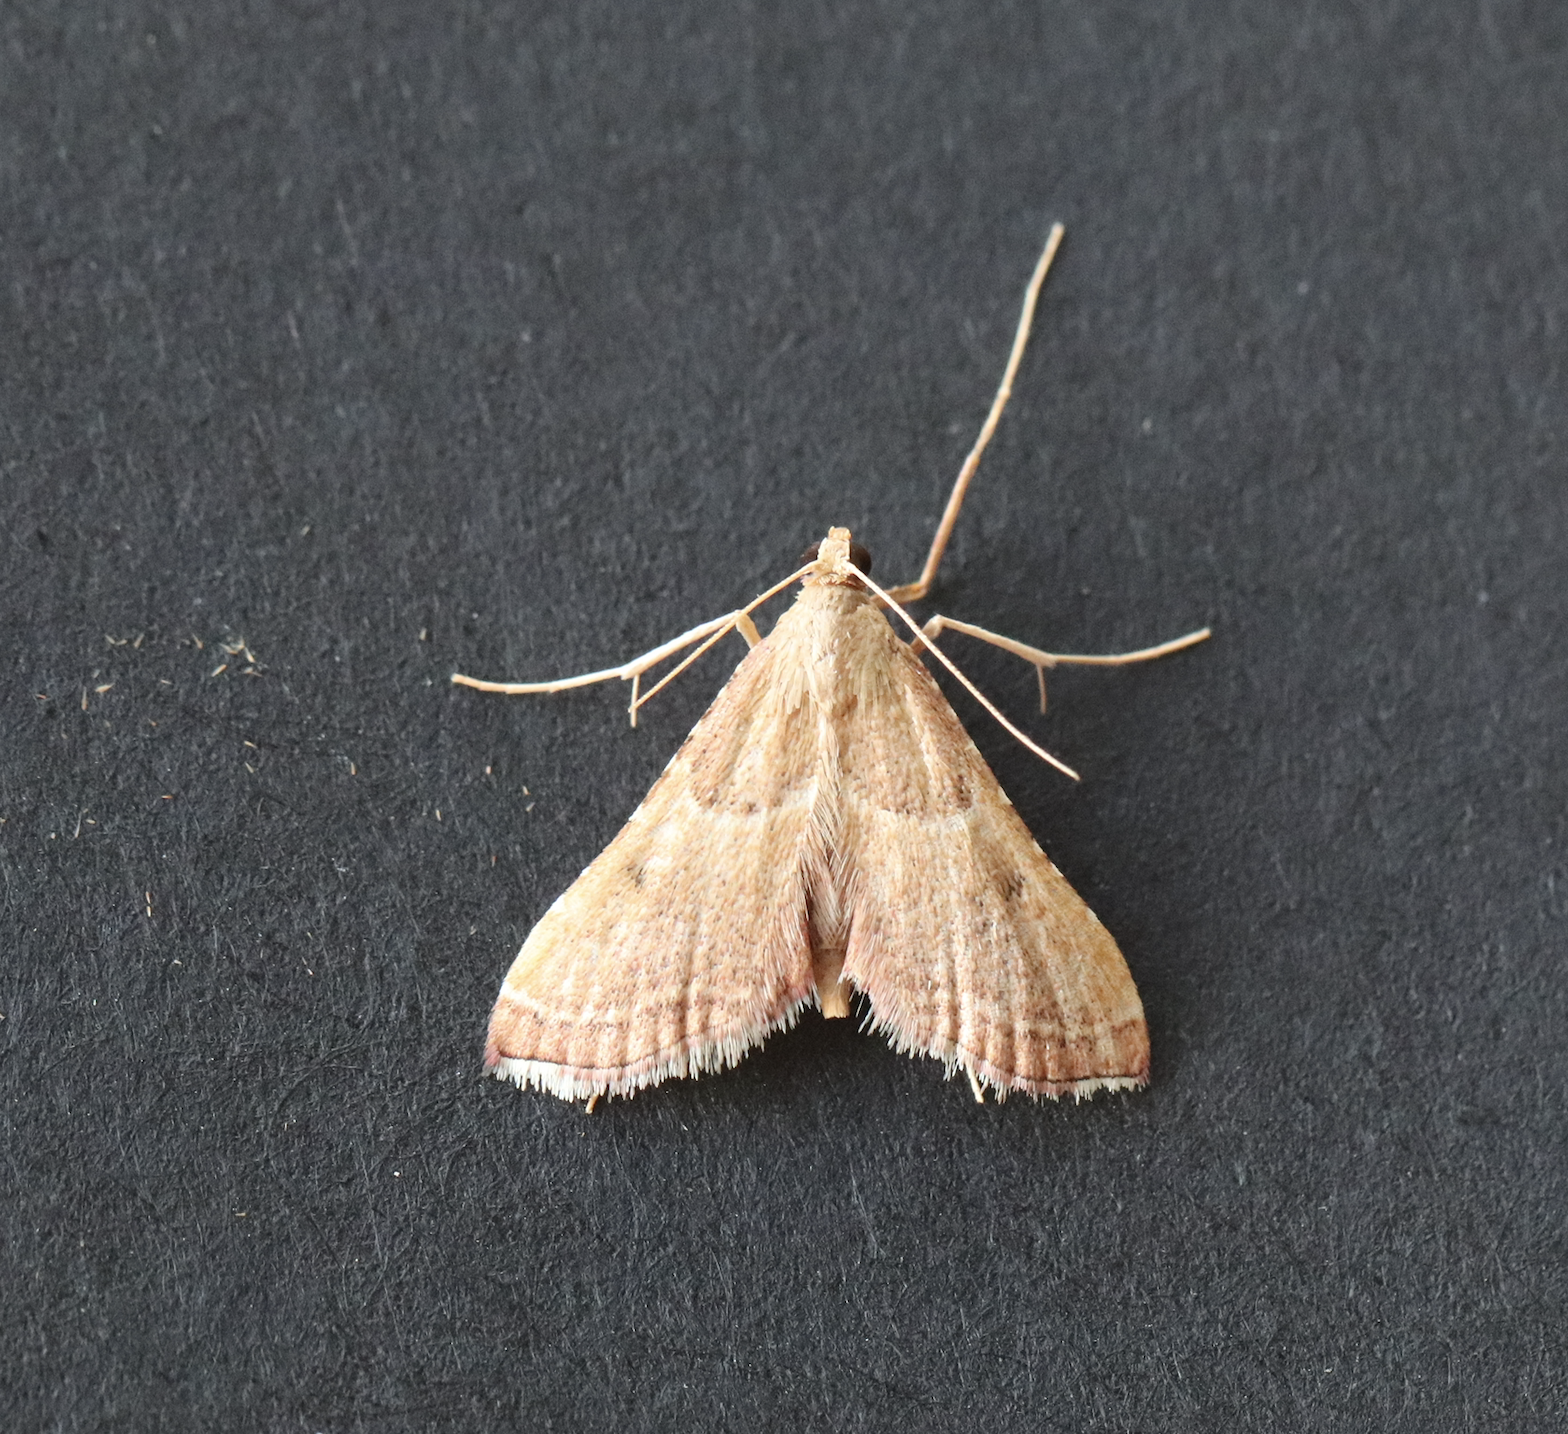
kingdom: Animalia
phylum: Arthropoda
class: Insecta
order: Lepidoptera
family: Pyralidae
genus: Endotricha
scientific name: Endotricha flammealis
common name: Rosy tabby
